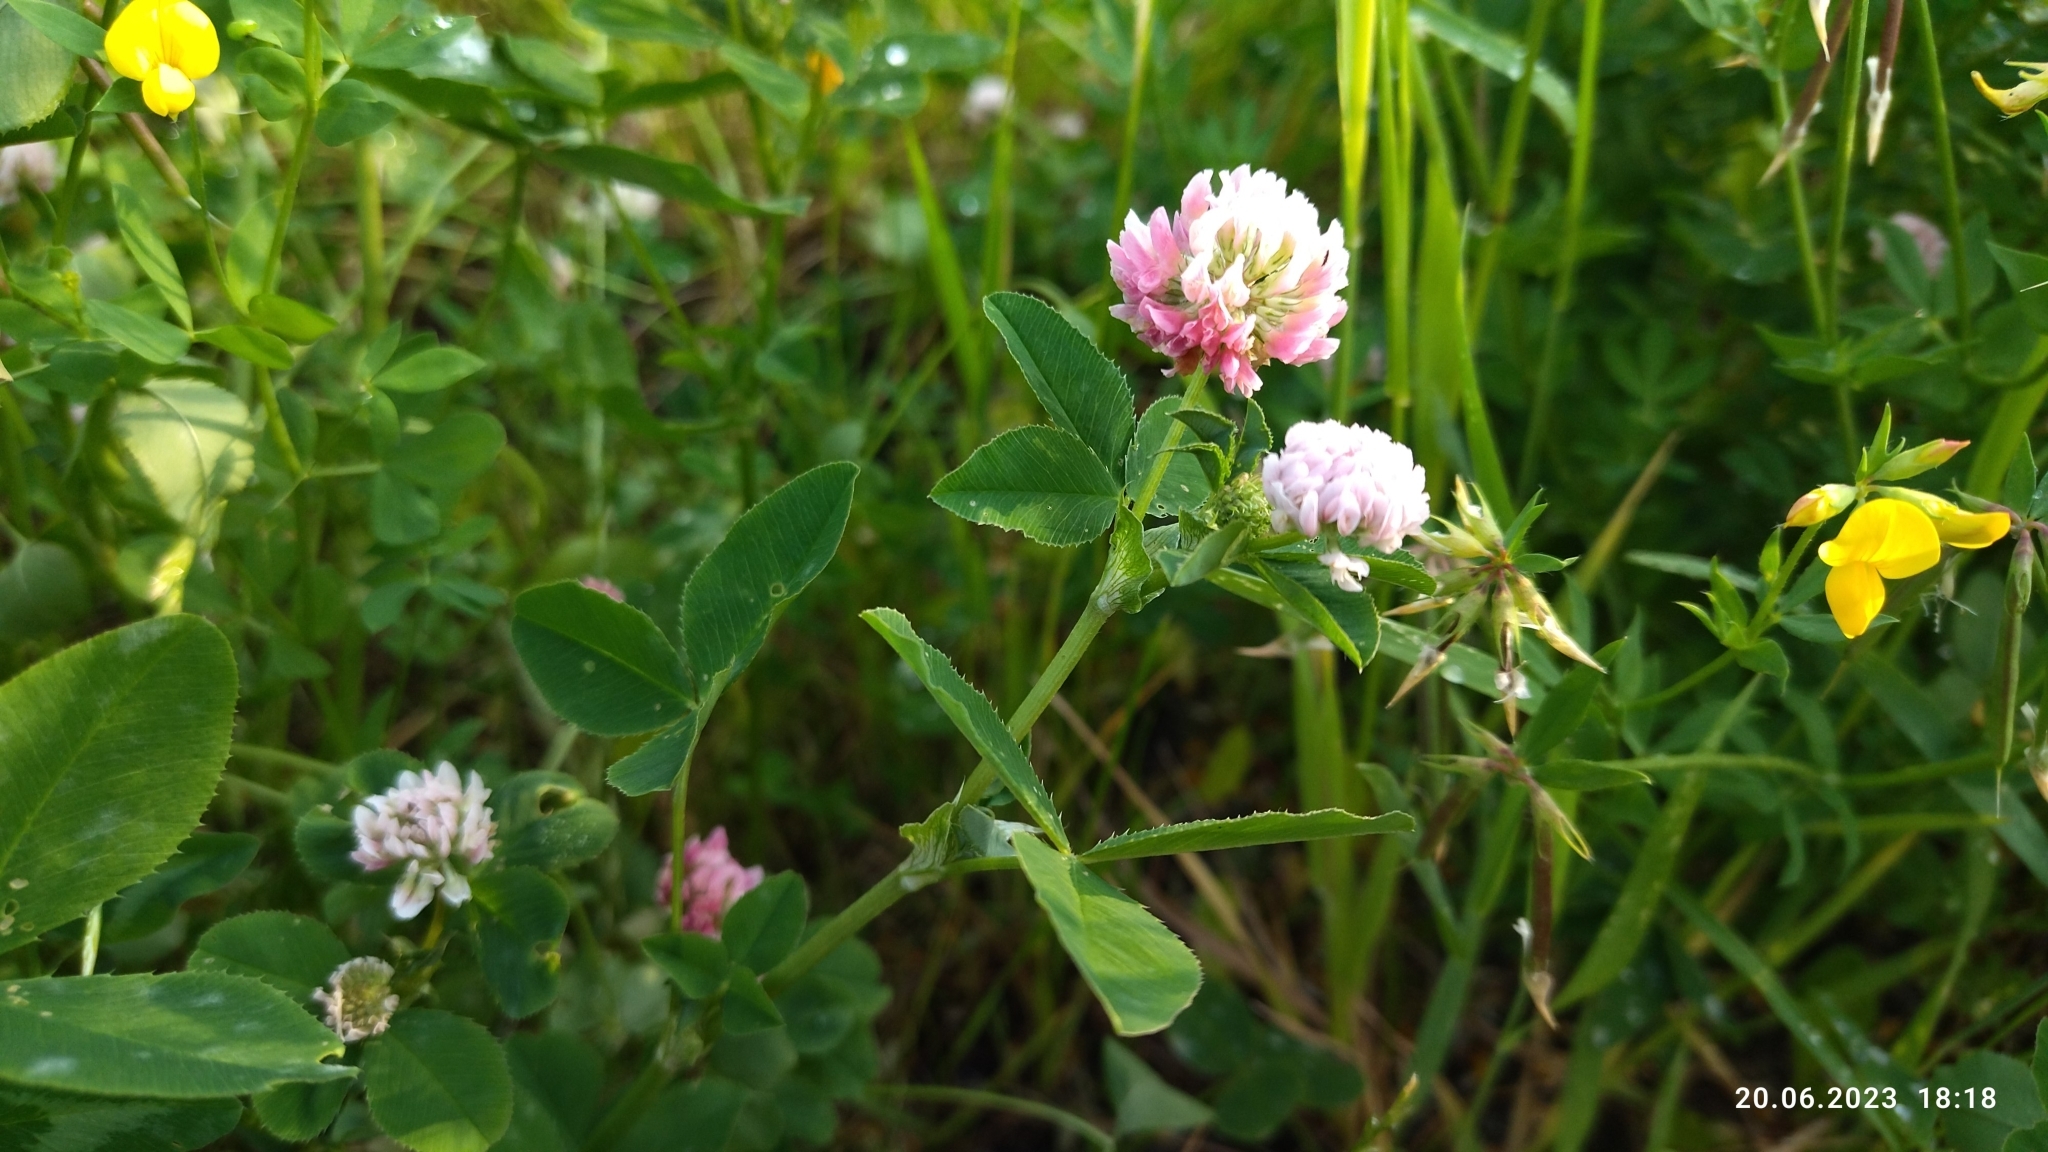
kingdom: Plantae
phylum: Tracheophyta
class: Magnoliopsida
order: Fabales
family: Fabaceae
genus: Trifolium
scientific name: Trifolium hybridum
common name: Alsike clover
